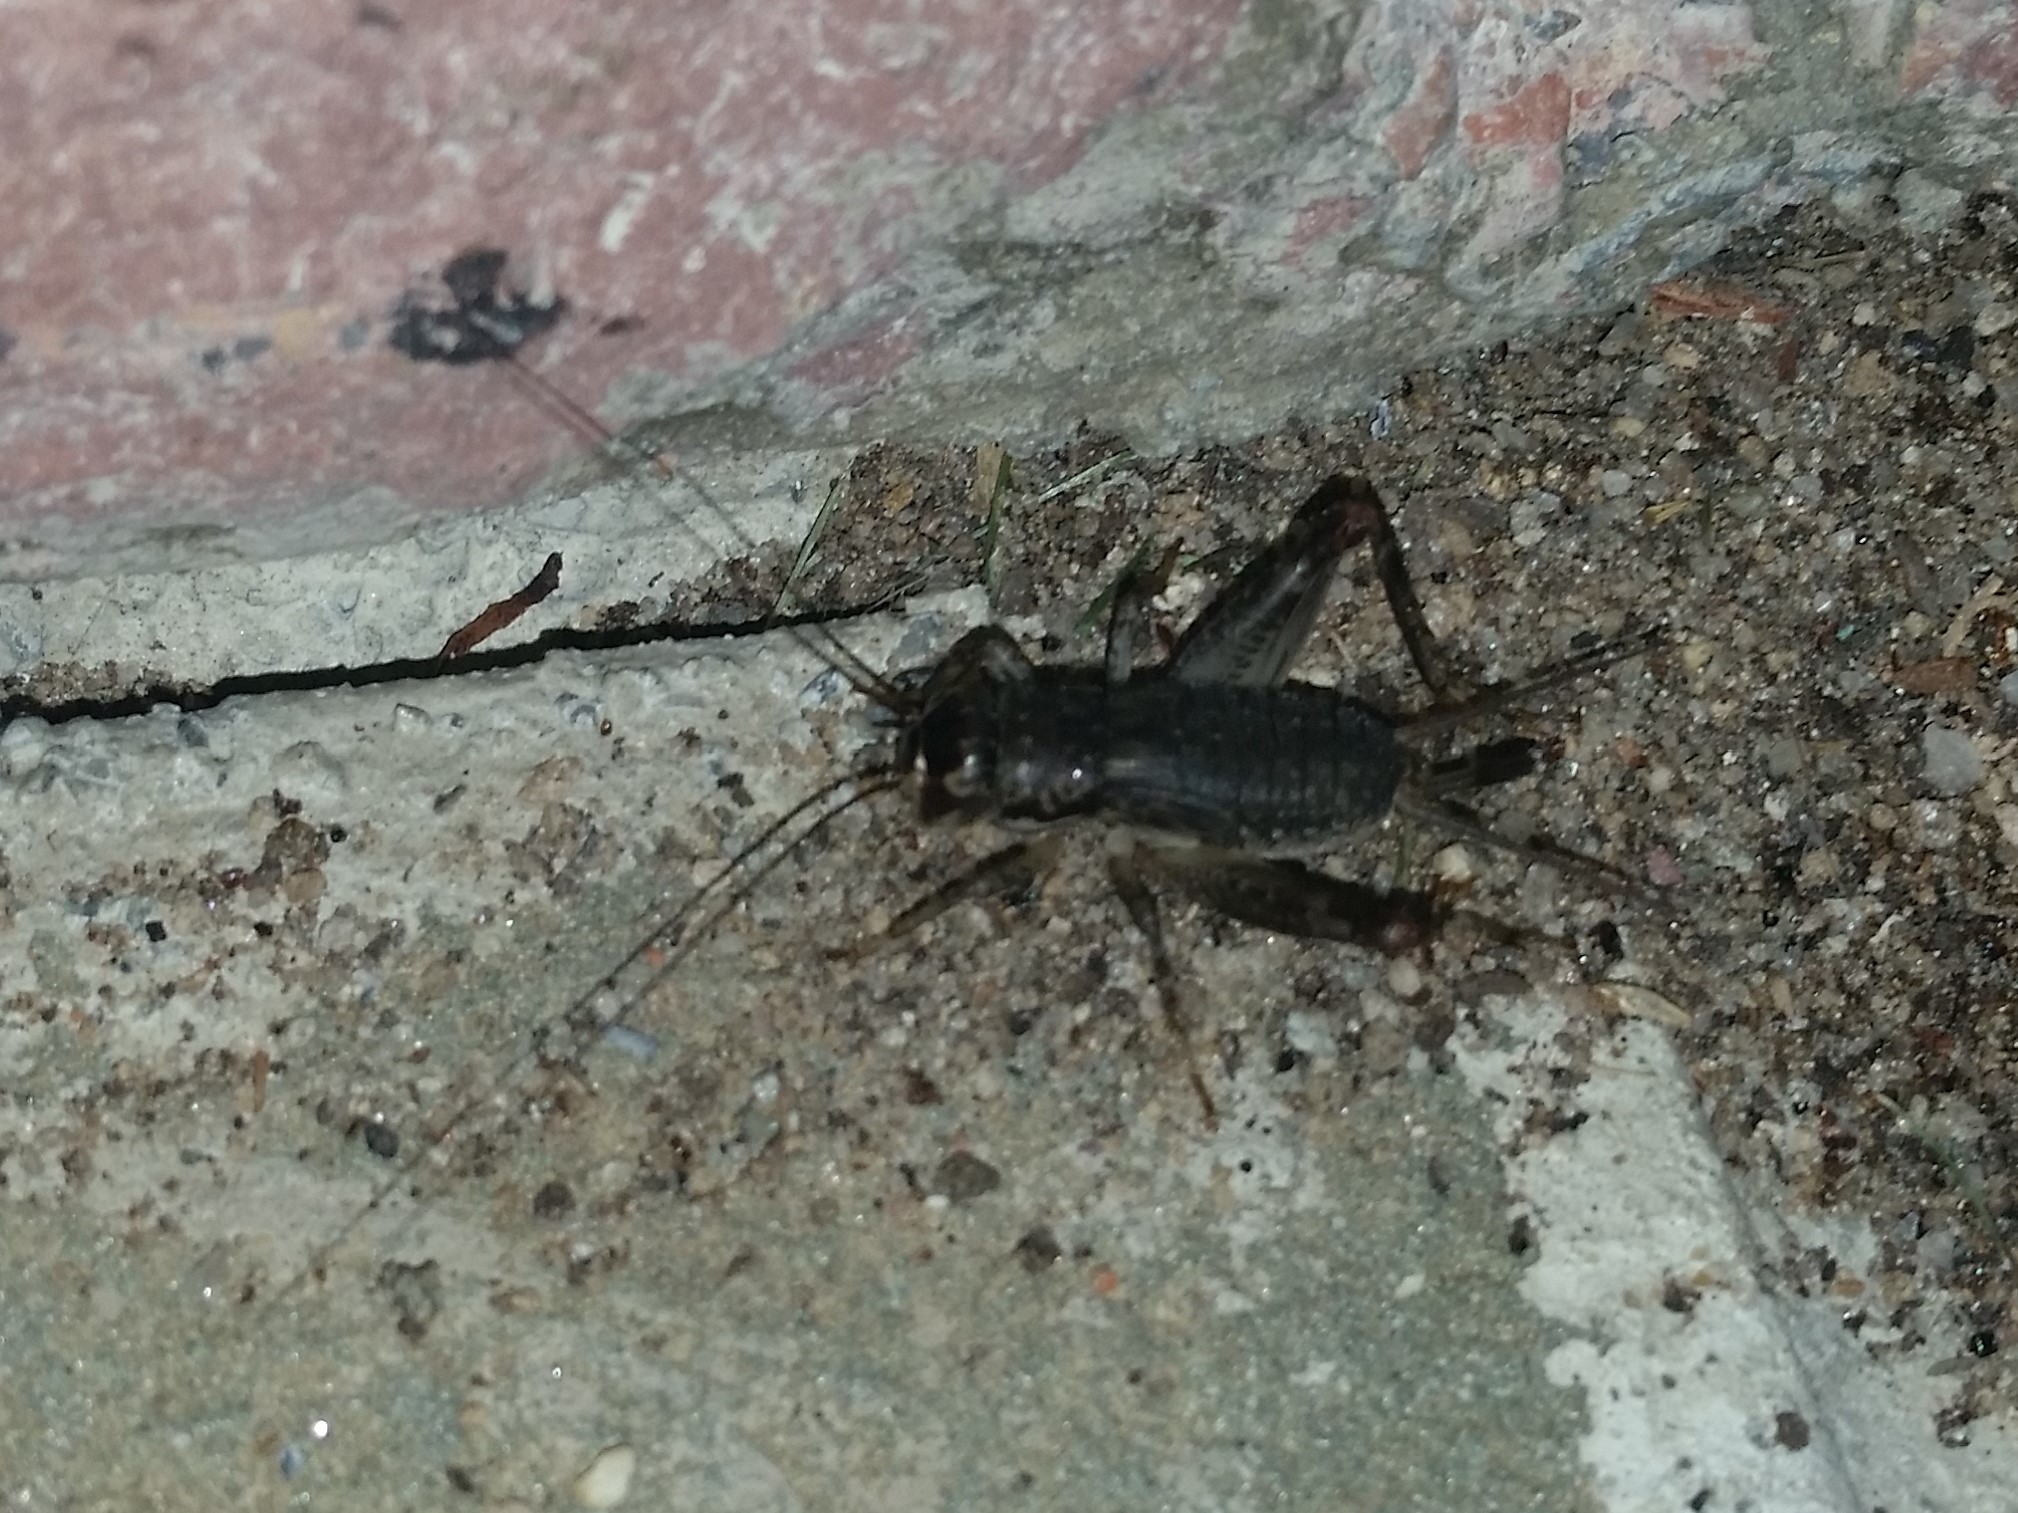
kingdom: Animalia
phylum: Arthropoda
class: Insecta
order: Orthoptera
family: Gryllidae
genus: Velarifictorus
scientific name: Velarifictorus micado
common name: Japanese burrowing cricket
